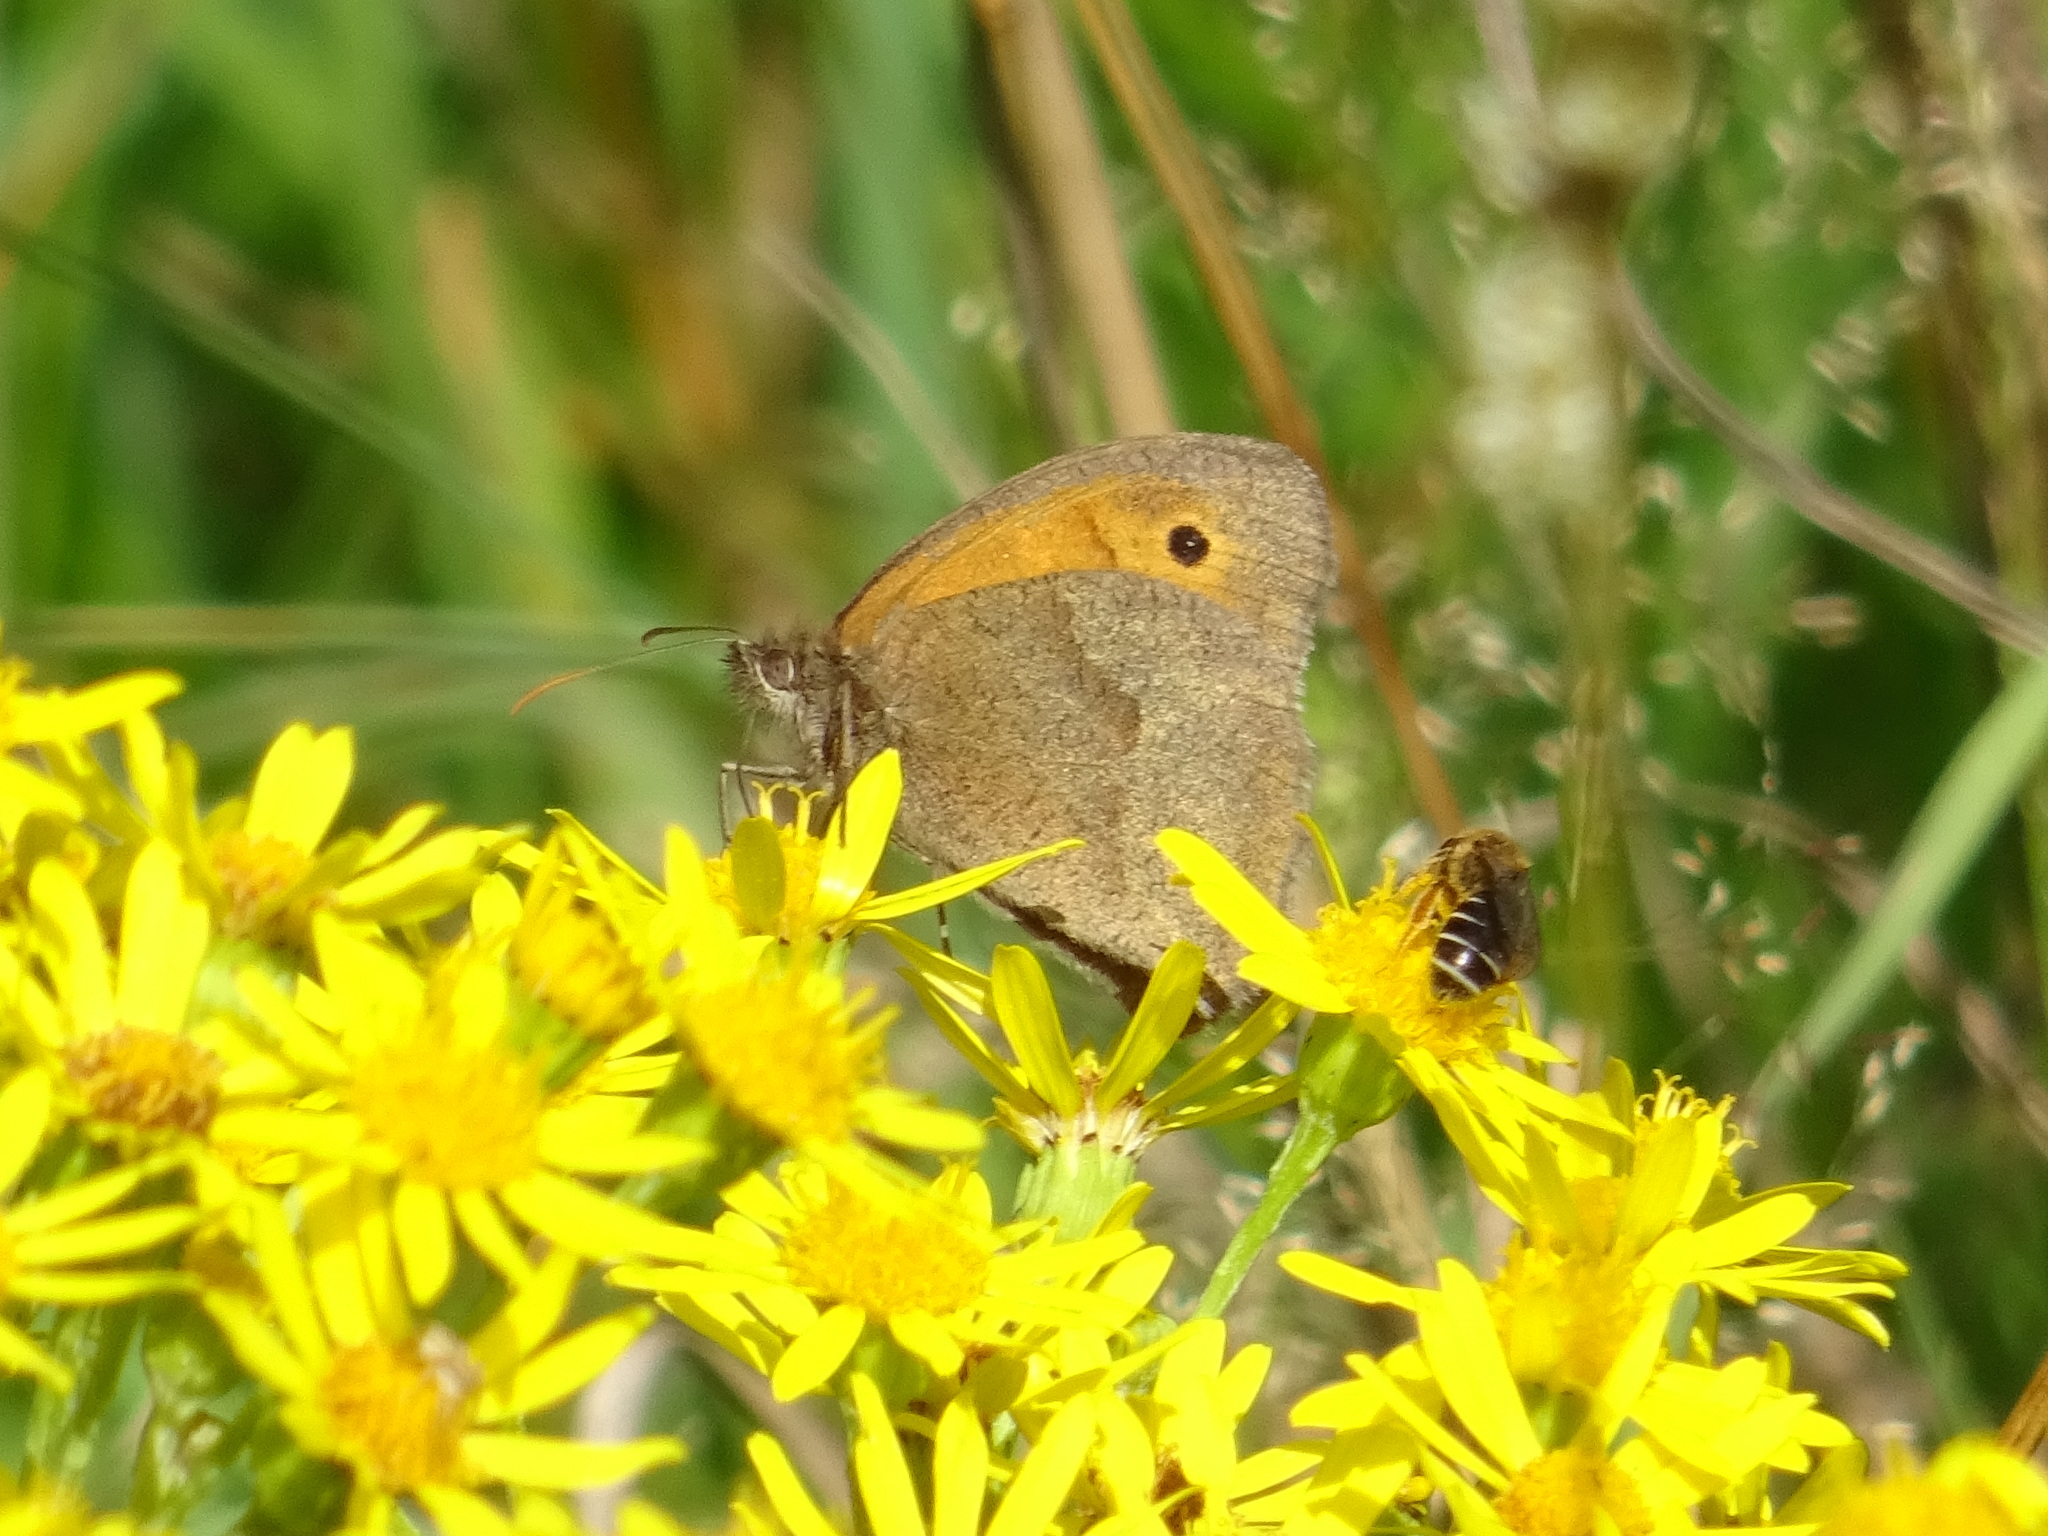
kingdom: Animalia
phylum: Arthropoda
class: Insecta
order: Lepidoptera
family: Nymphalidae
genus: Maniola
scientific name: Maniola jurtina
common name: Meadow brown
